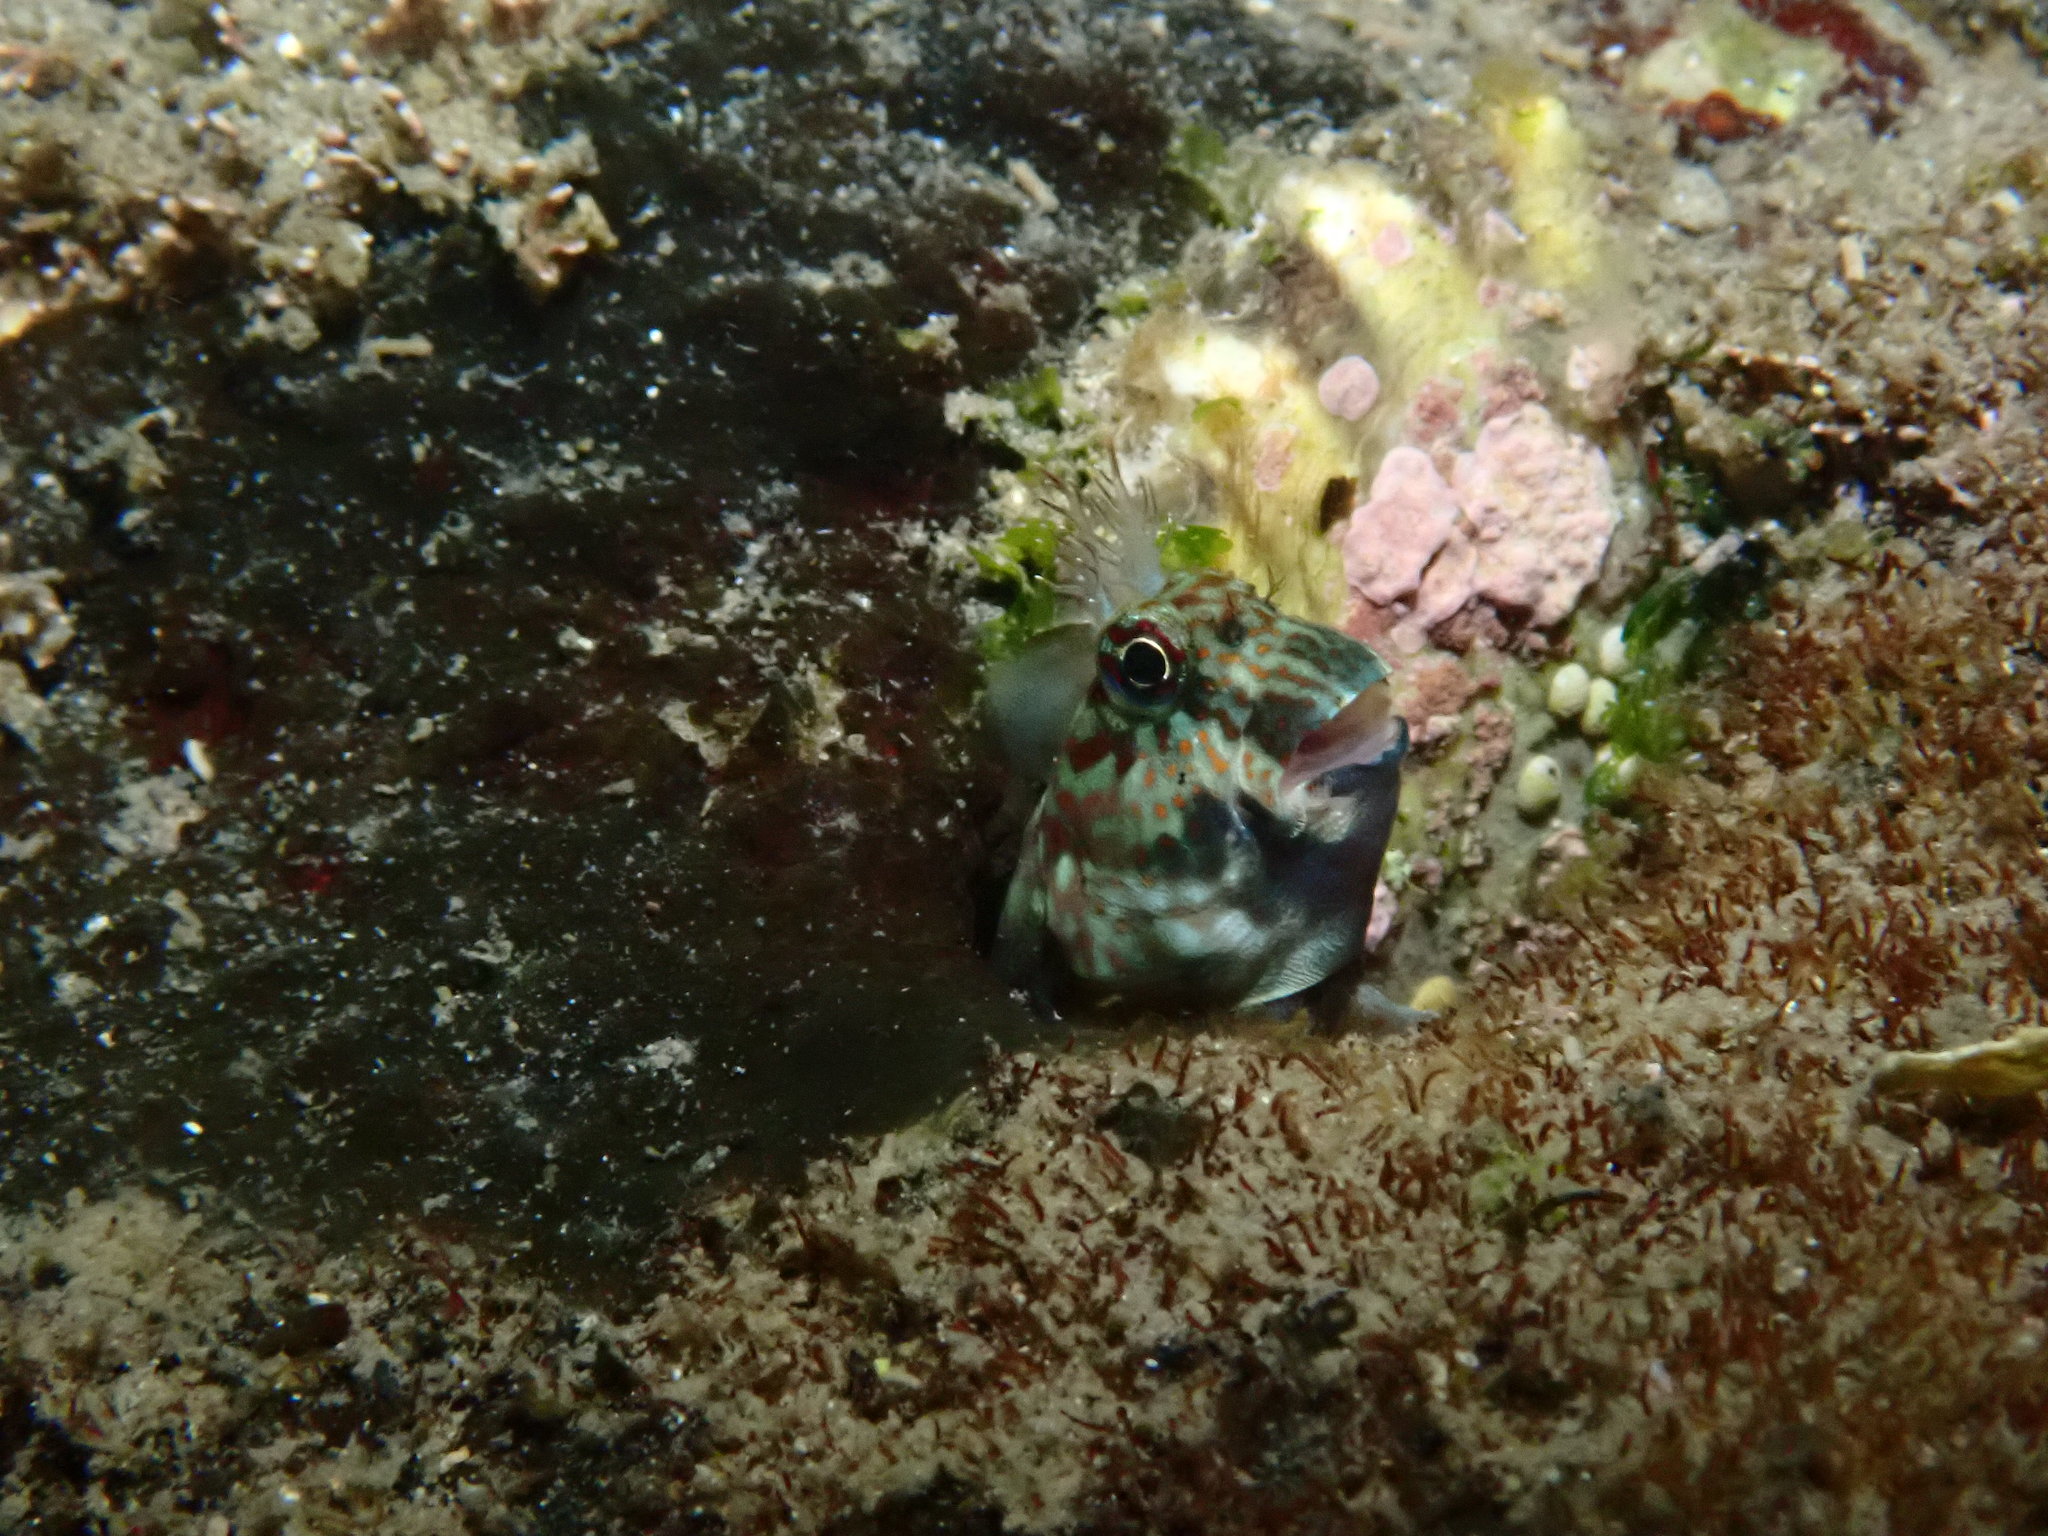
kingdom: Animalia
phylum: Chordata
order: Perciformes
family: Blenniidae
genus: Istiblennius
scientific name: Istiblennius dussumieri
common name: Dussumier's rockskipper
